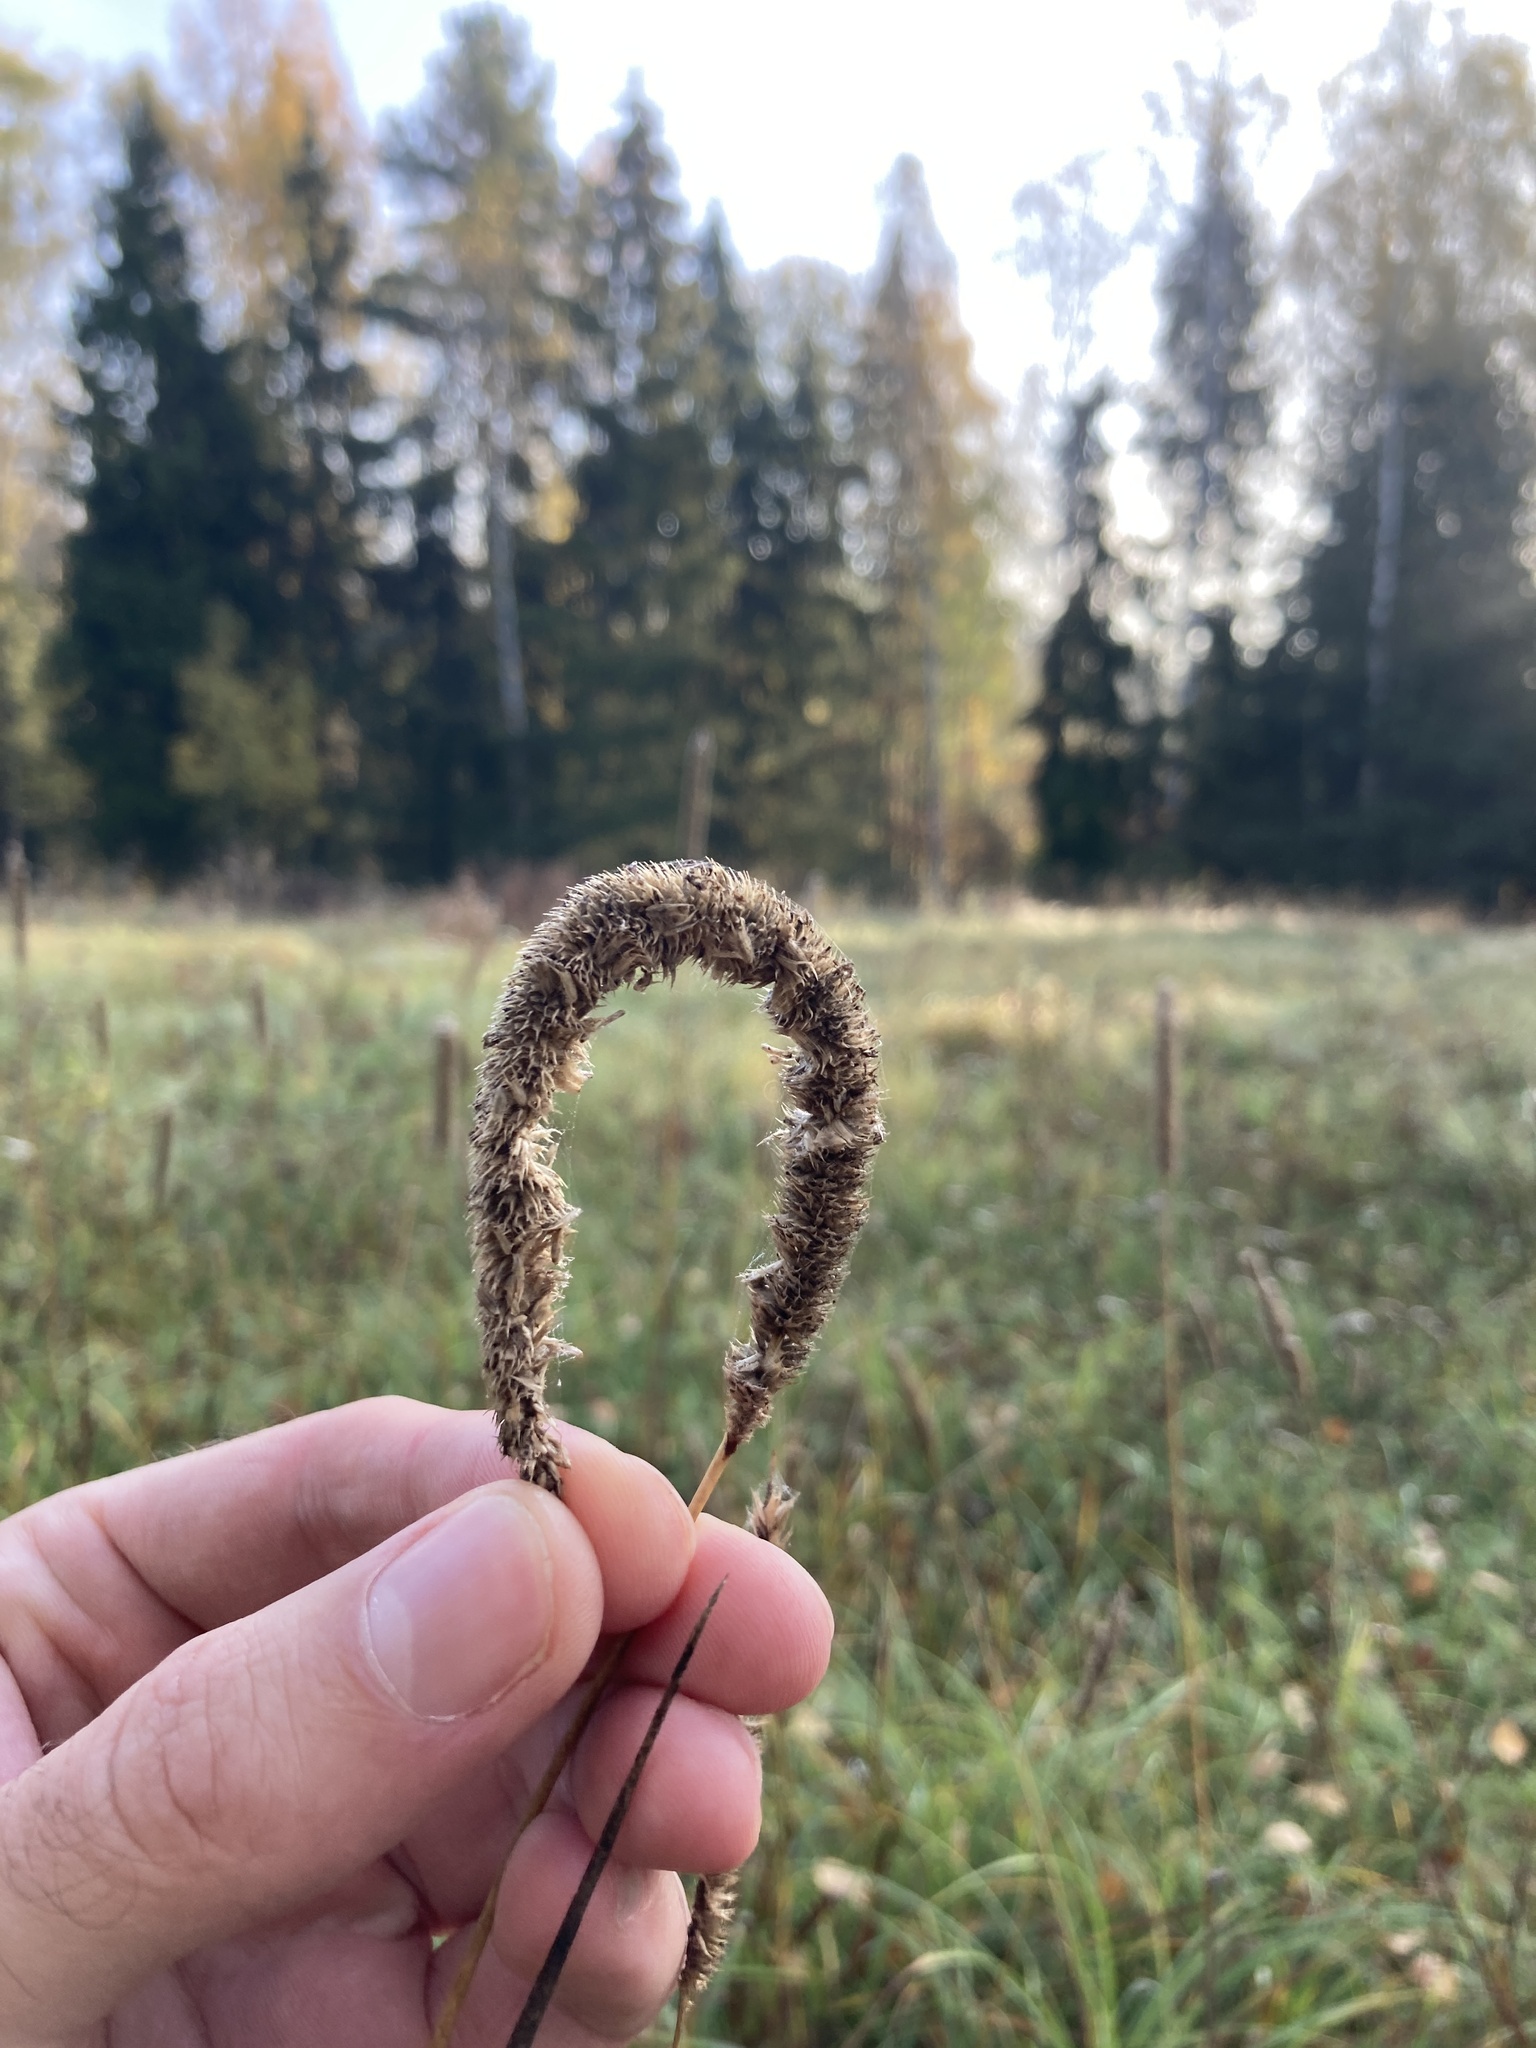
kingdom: Plantae
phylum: Tracheophyta
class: Liliopsida
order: Poales
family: Poaceae
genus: Phleum
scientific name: Phleum pratense
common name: Timothy grass
